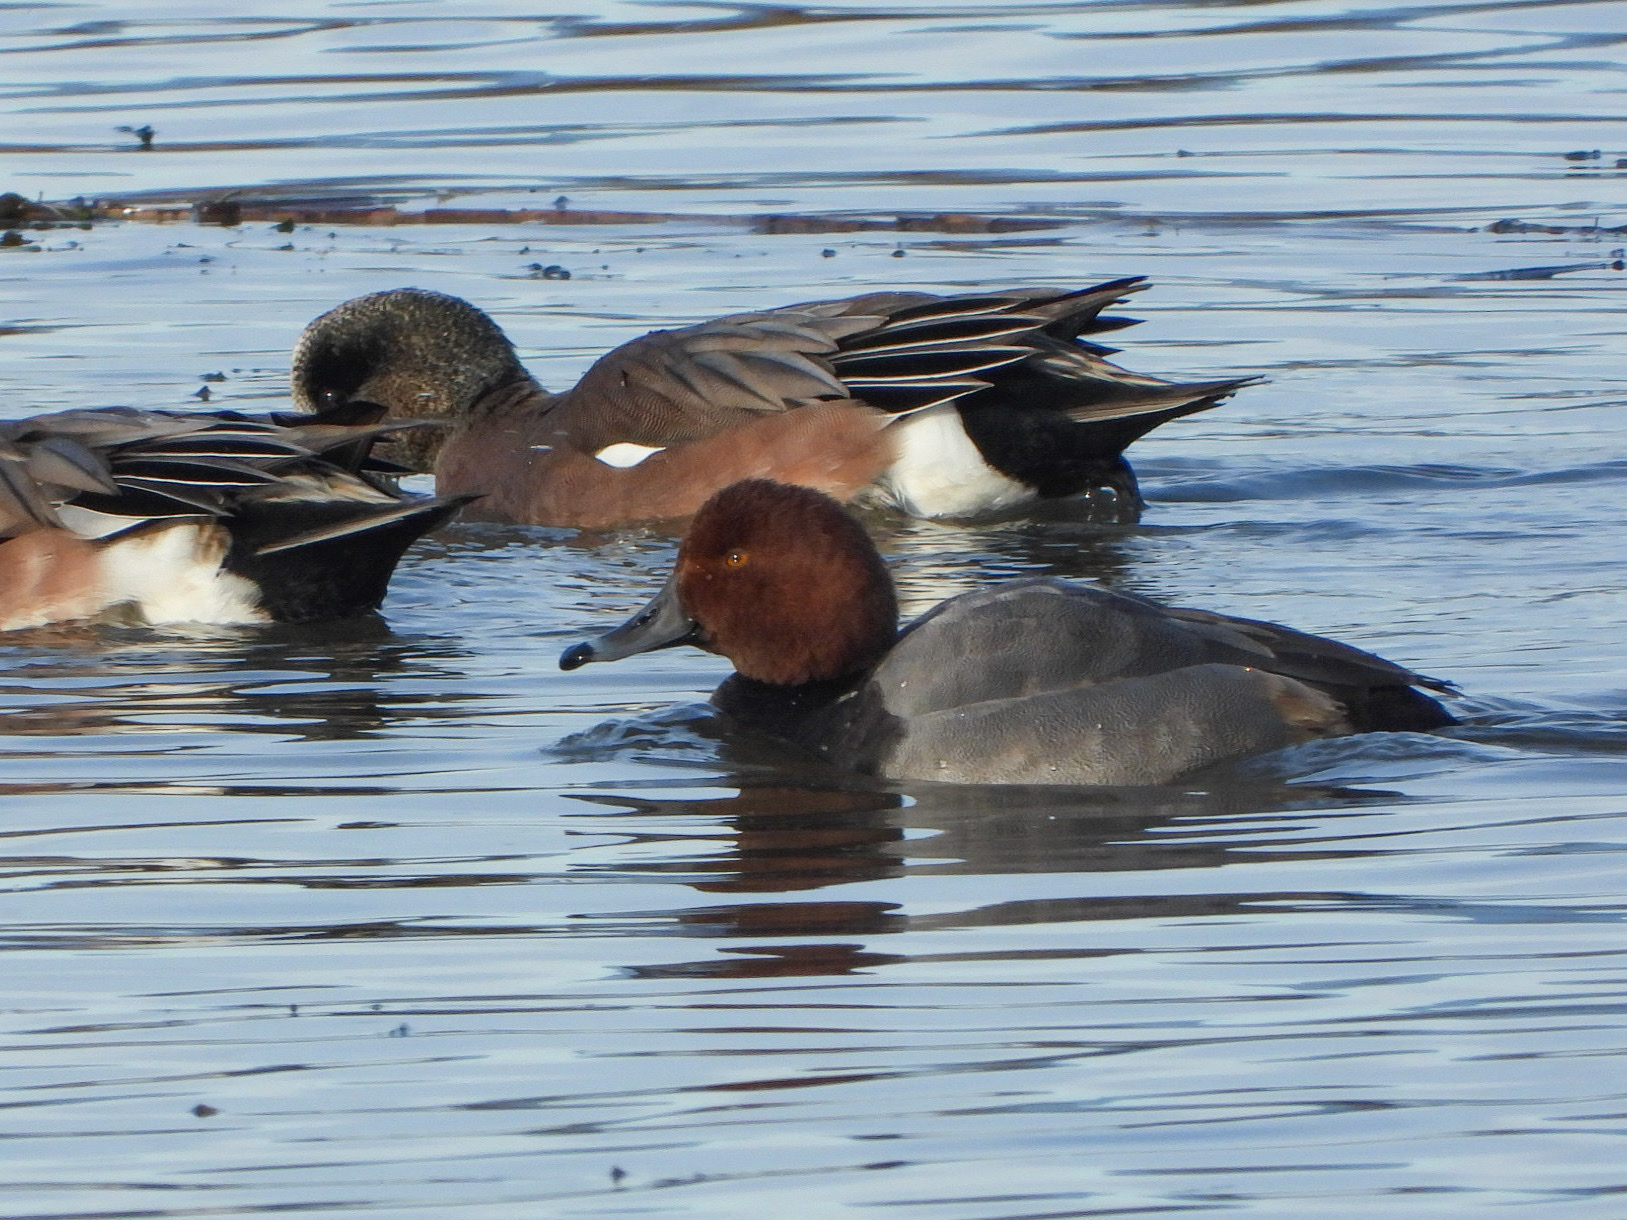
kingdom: Animalia
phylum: Chordata
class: Aves
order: Anseriformes
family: Anatidae
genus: Aythya
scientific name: Aythya americana
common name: Redhead
